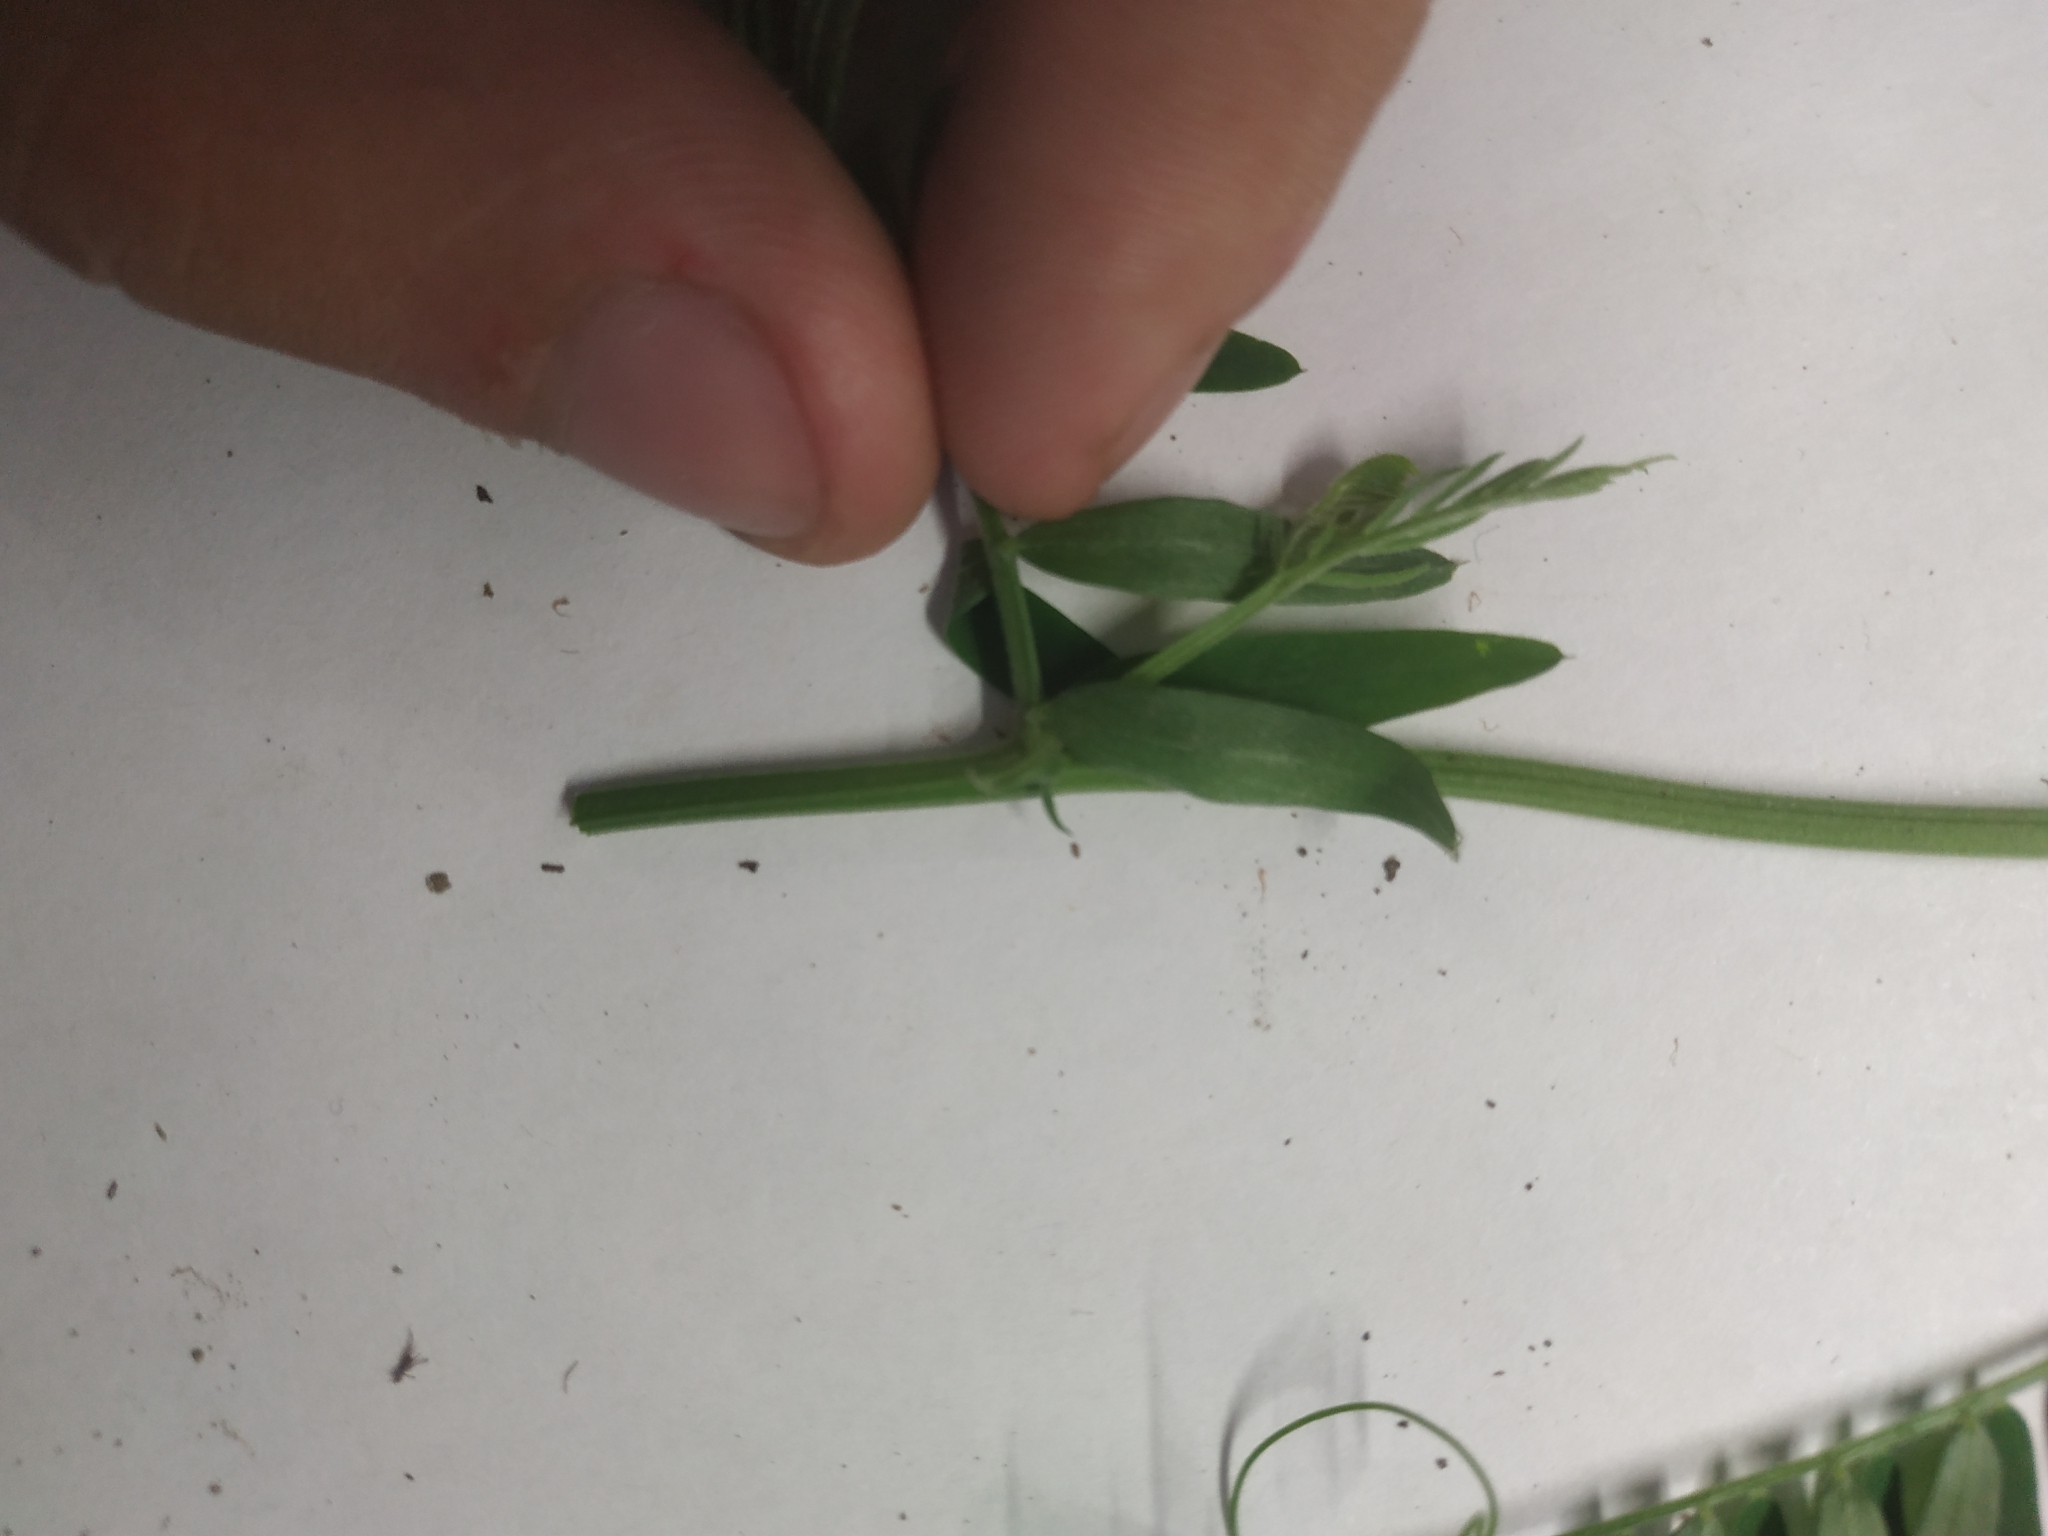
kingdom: Plantae
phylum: Tracheophyta
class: Magnoliopsida
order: Fabales
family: Fabaceae
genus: Vicia
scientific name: Vicia cracca
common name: Bird vetch
